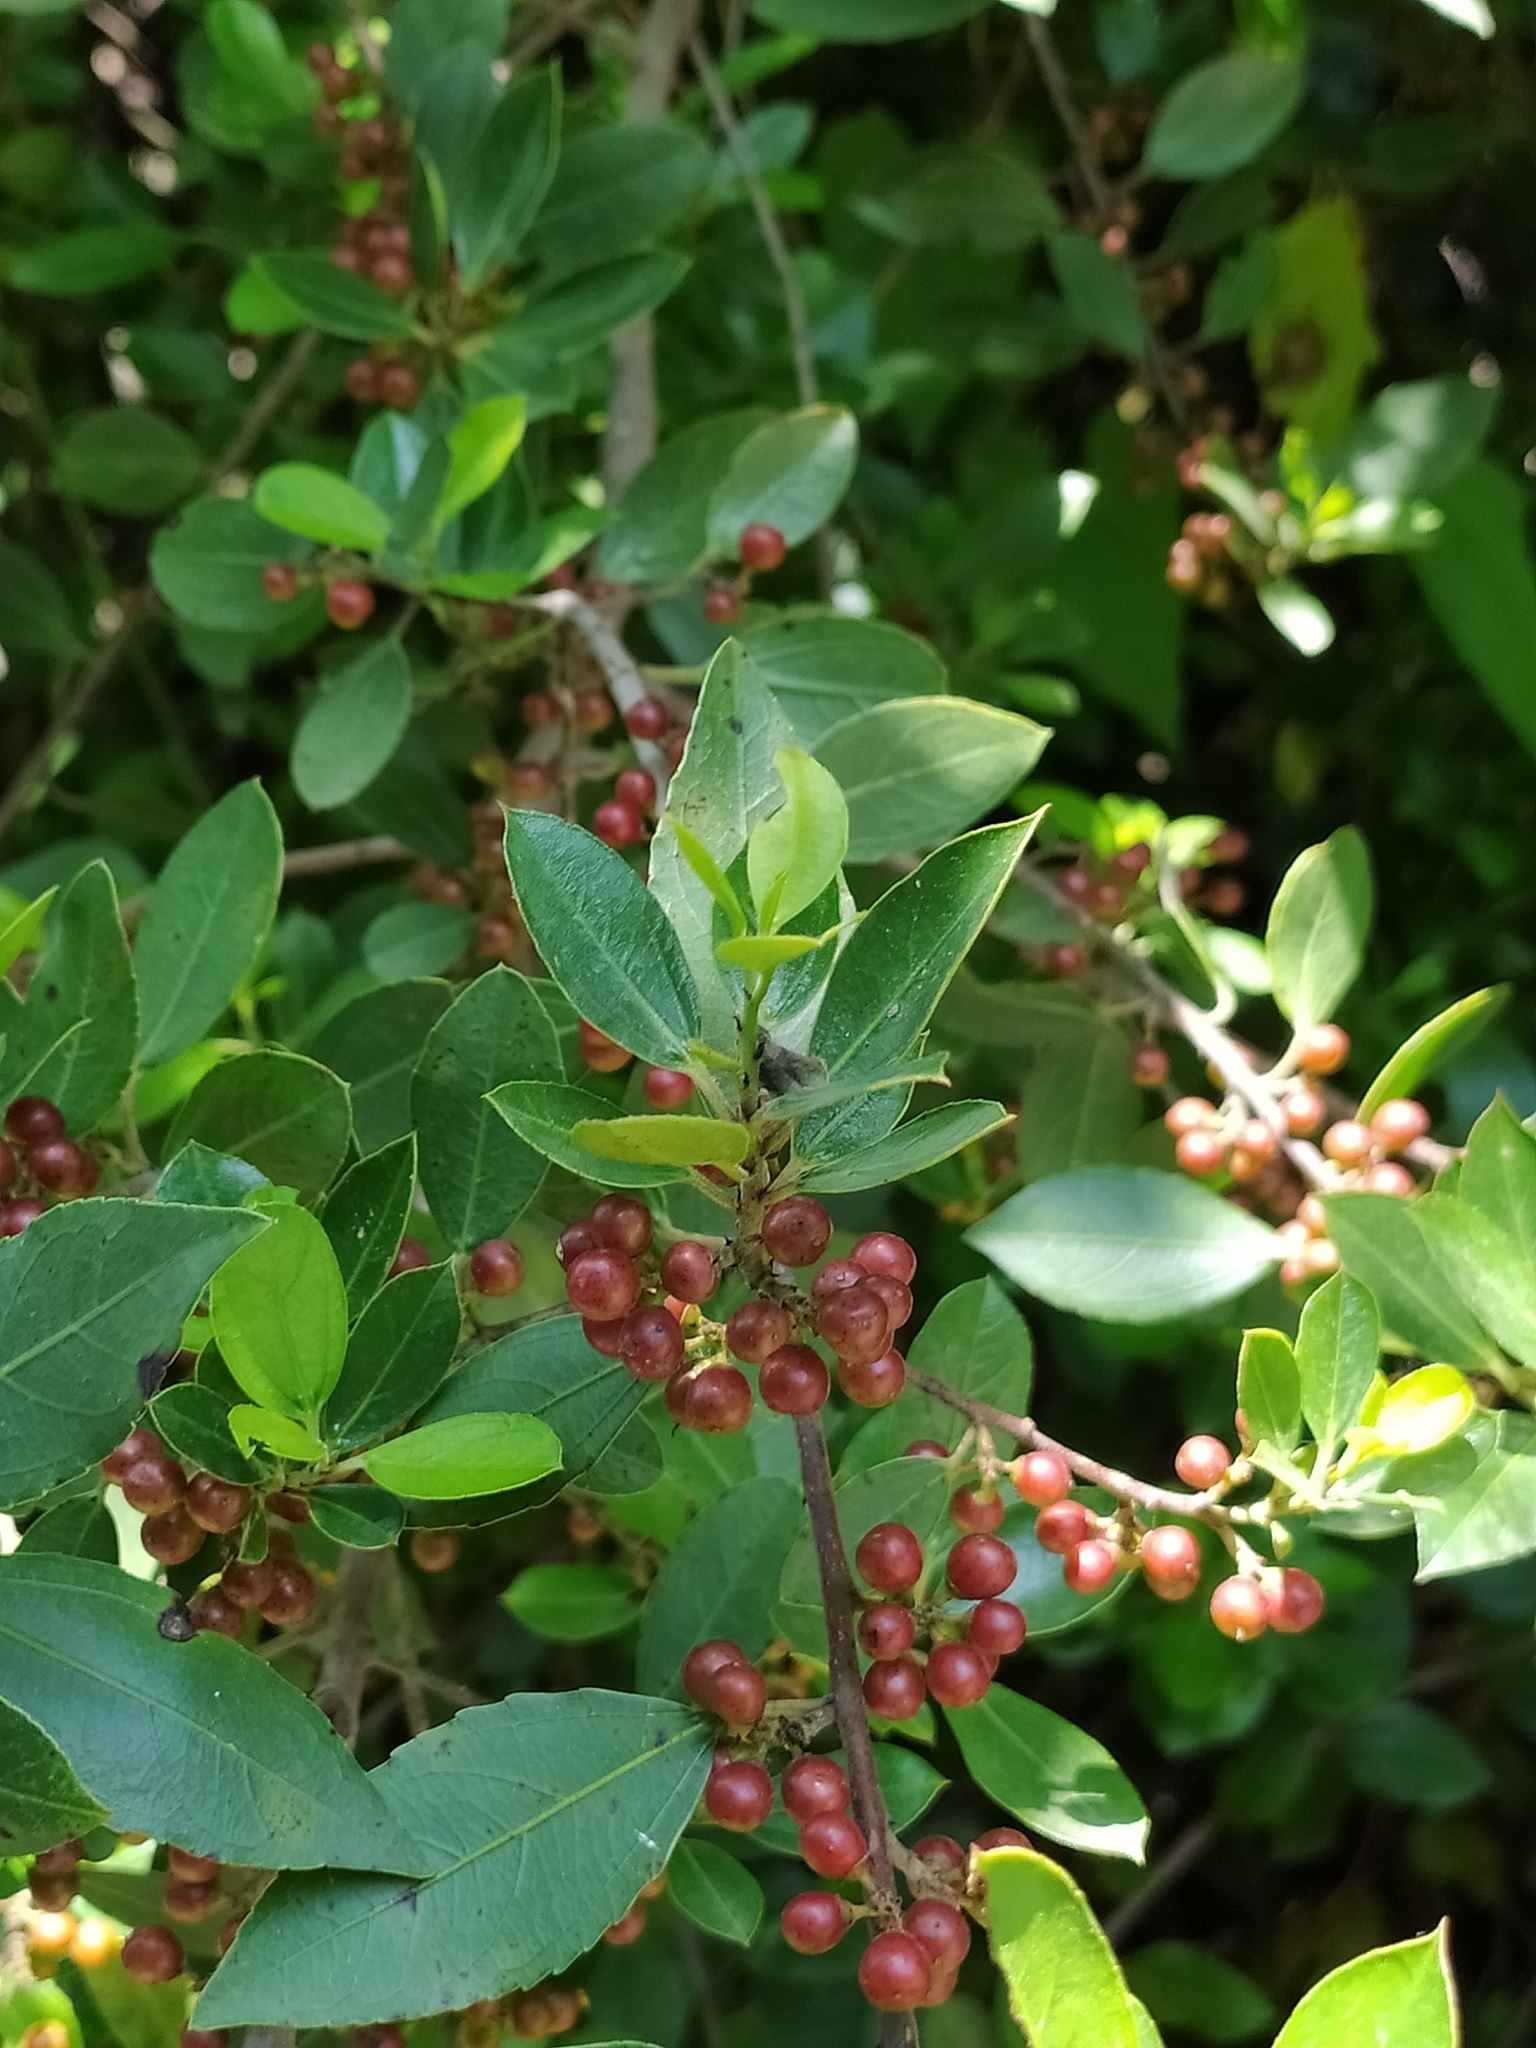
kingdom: Plantae
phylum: Tracheophyta
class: Magnoliopsida
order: Rosales
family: Rhamnaceae
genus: Rhamnus
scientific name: Rhamnus alaternus
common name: Mediterranean buckthorn
